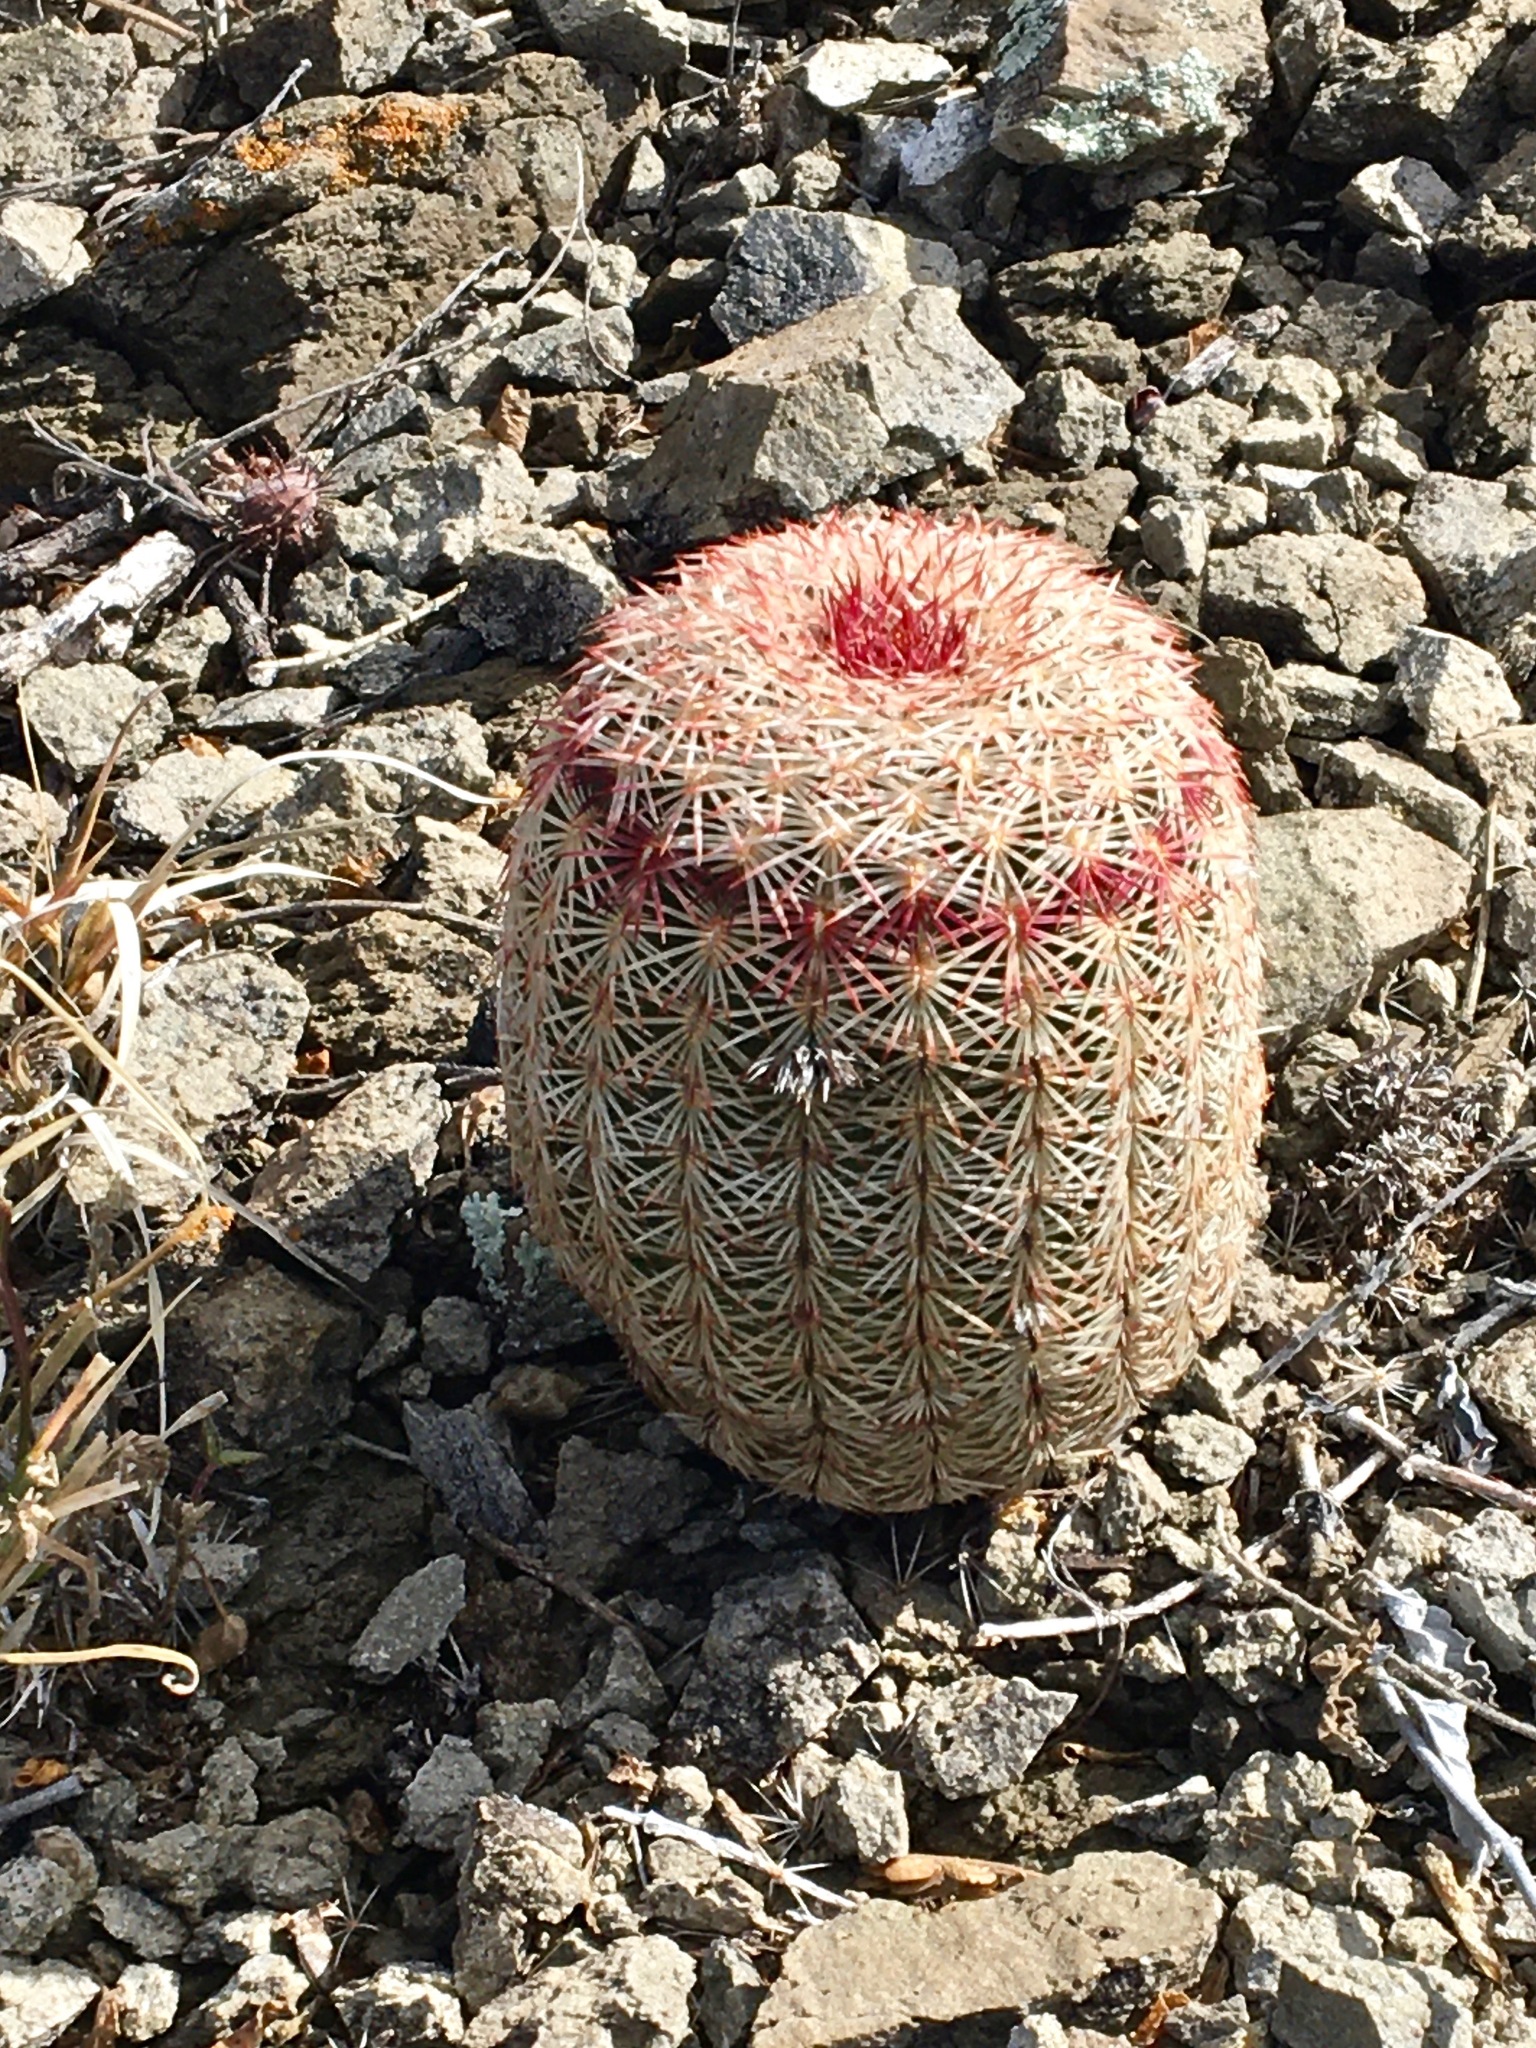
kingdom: Plantae
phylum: Tracheophyta
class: Magnoliopsida
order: Caryophyllales
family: Cactaceae
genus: Echinocereus
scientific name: Echinocereus rigidissimus
